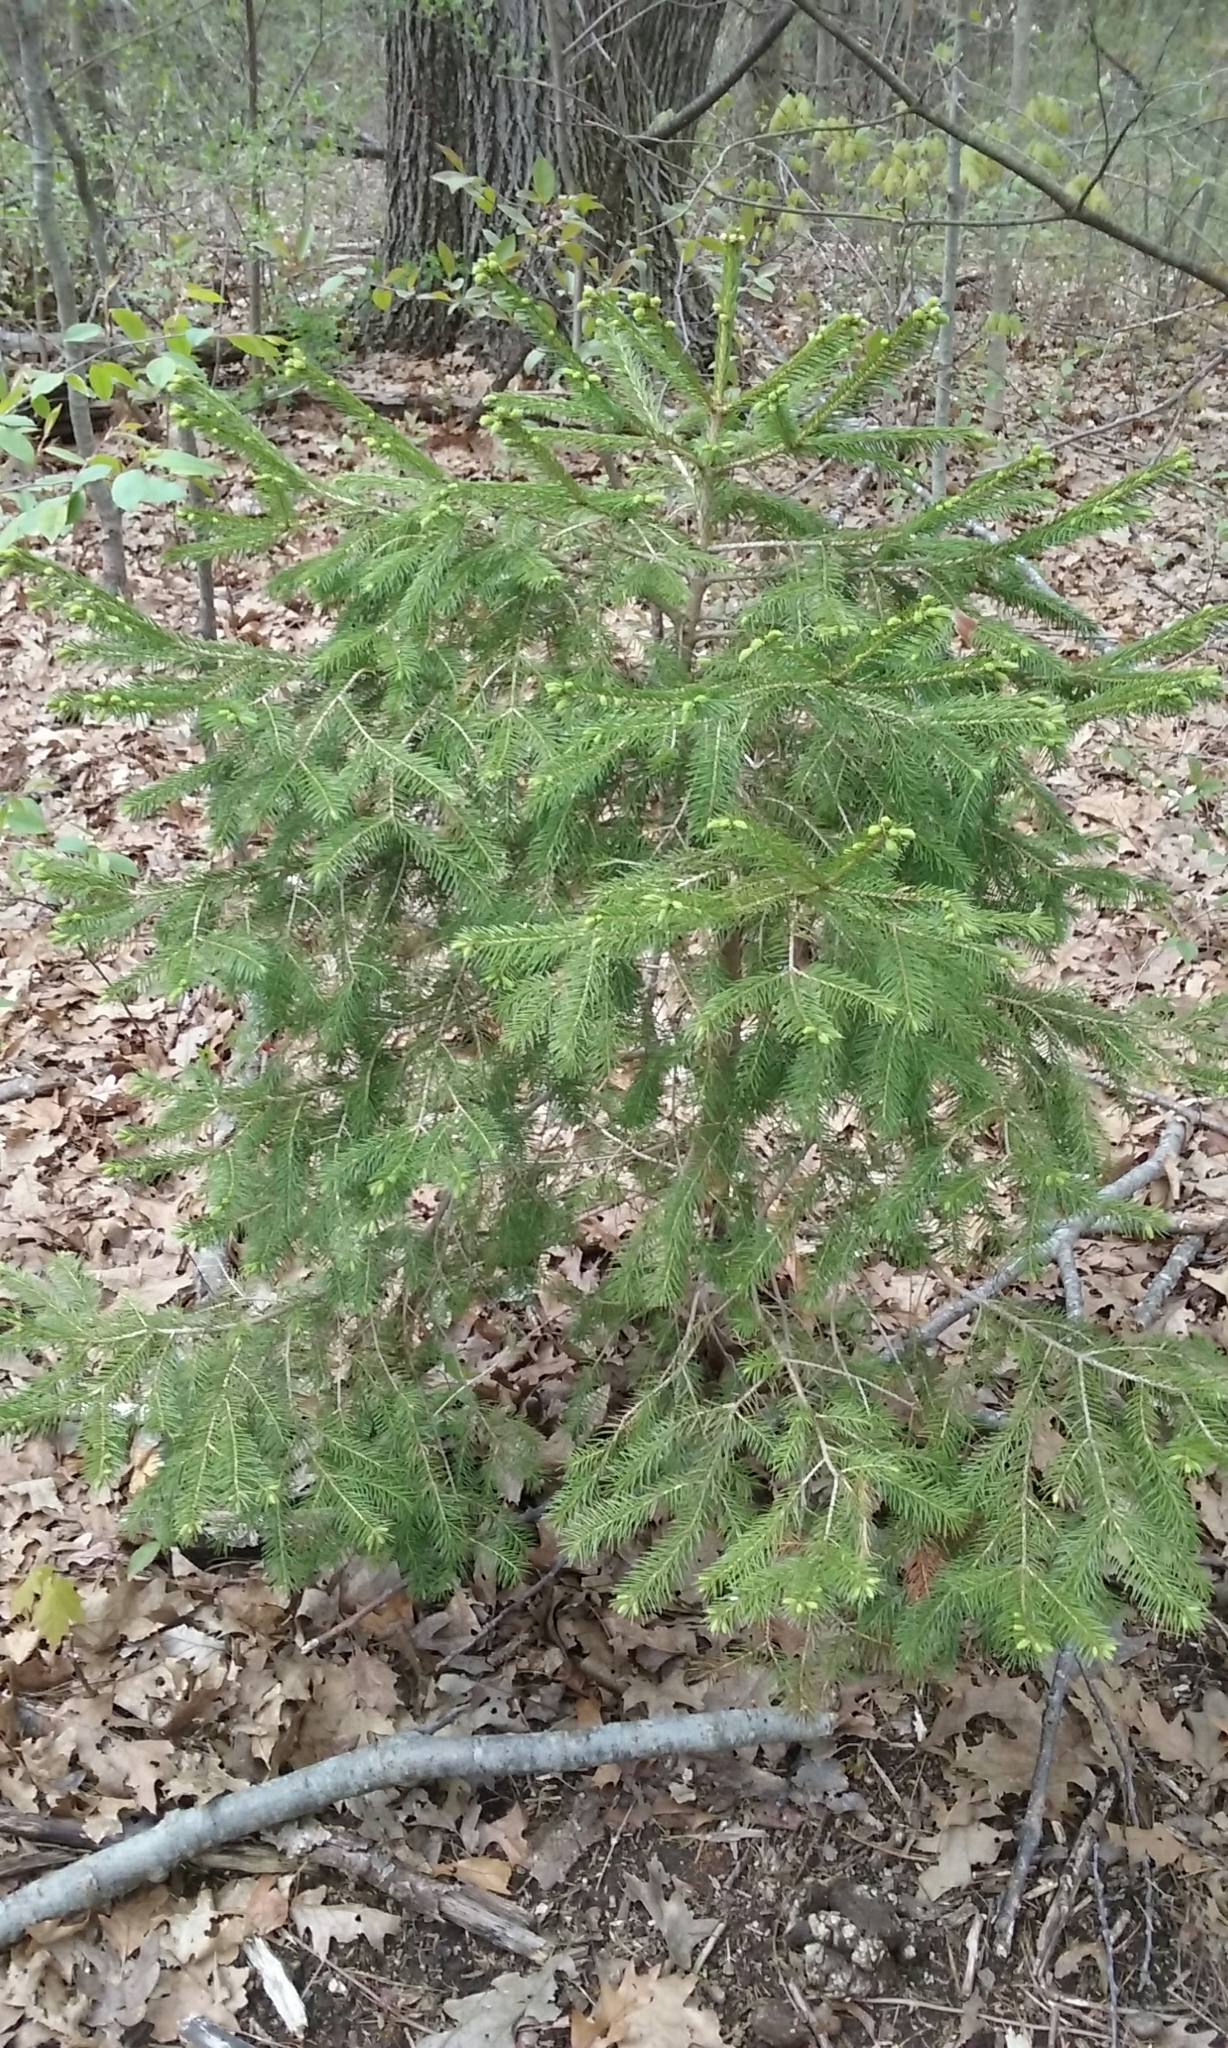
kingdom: Plantae
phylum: Tracheophyta
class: Pinopsida
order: Pinales
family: Pinaceae
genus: Picea
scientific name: Picea rubens
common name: Red spruce
